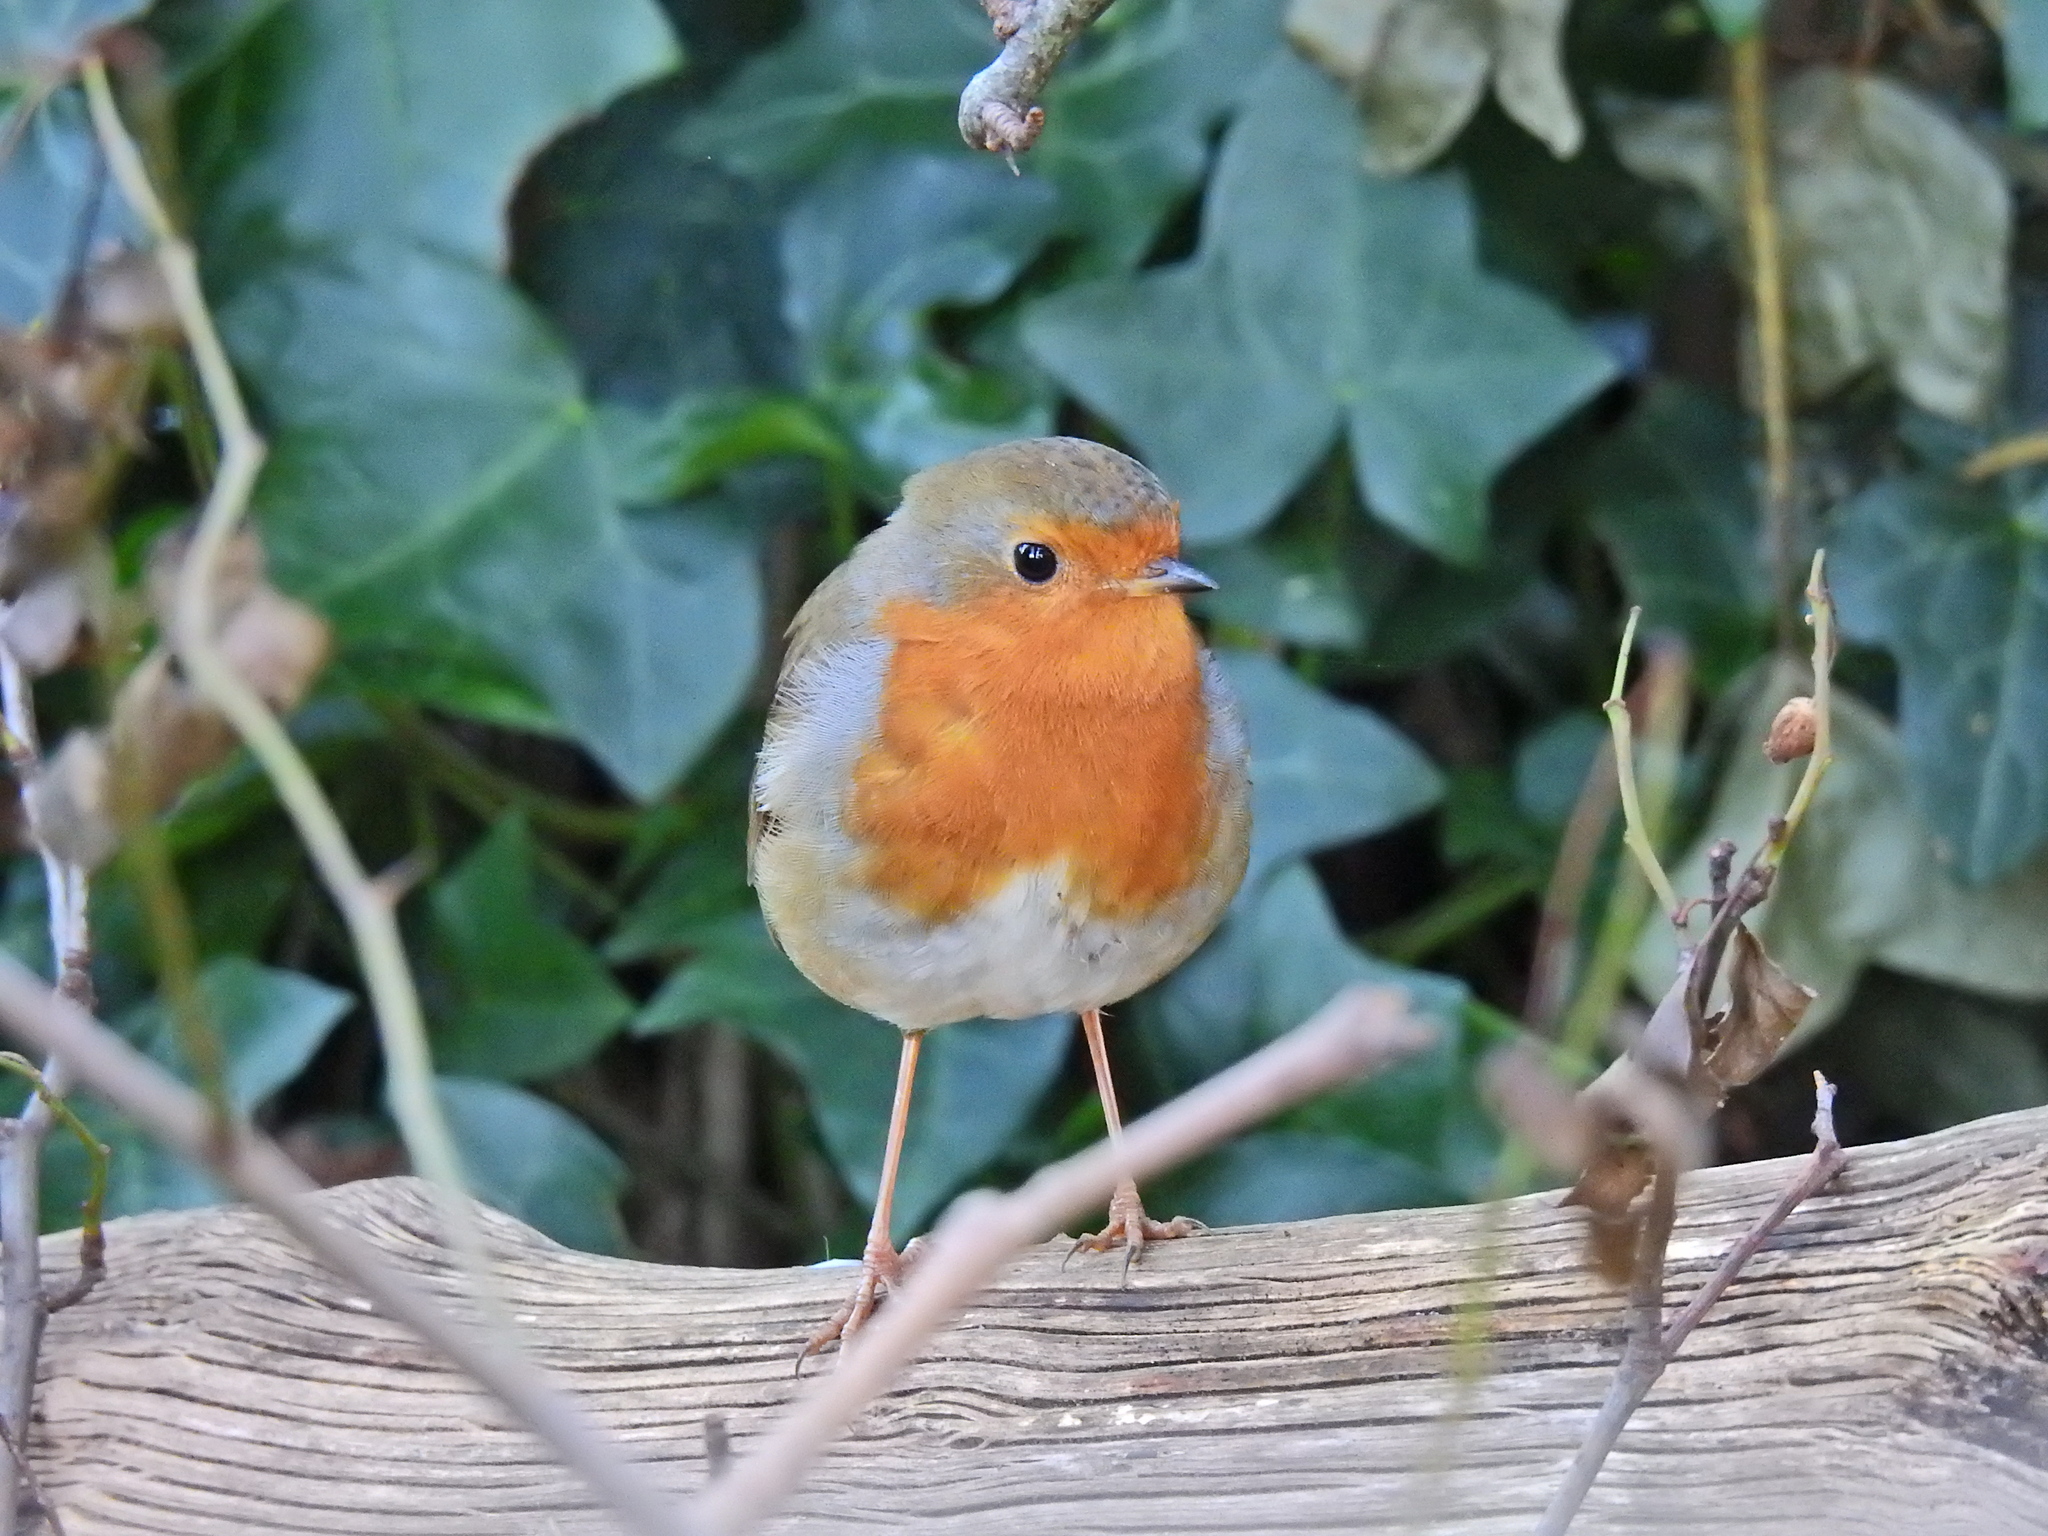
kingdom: Animalia
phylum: Chordata
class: Aves
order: Passeriformes
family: Muscicapidae
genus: Erithacus
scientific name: Erithacus rubecula
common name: European robin
